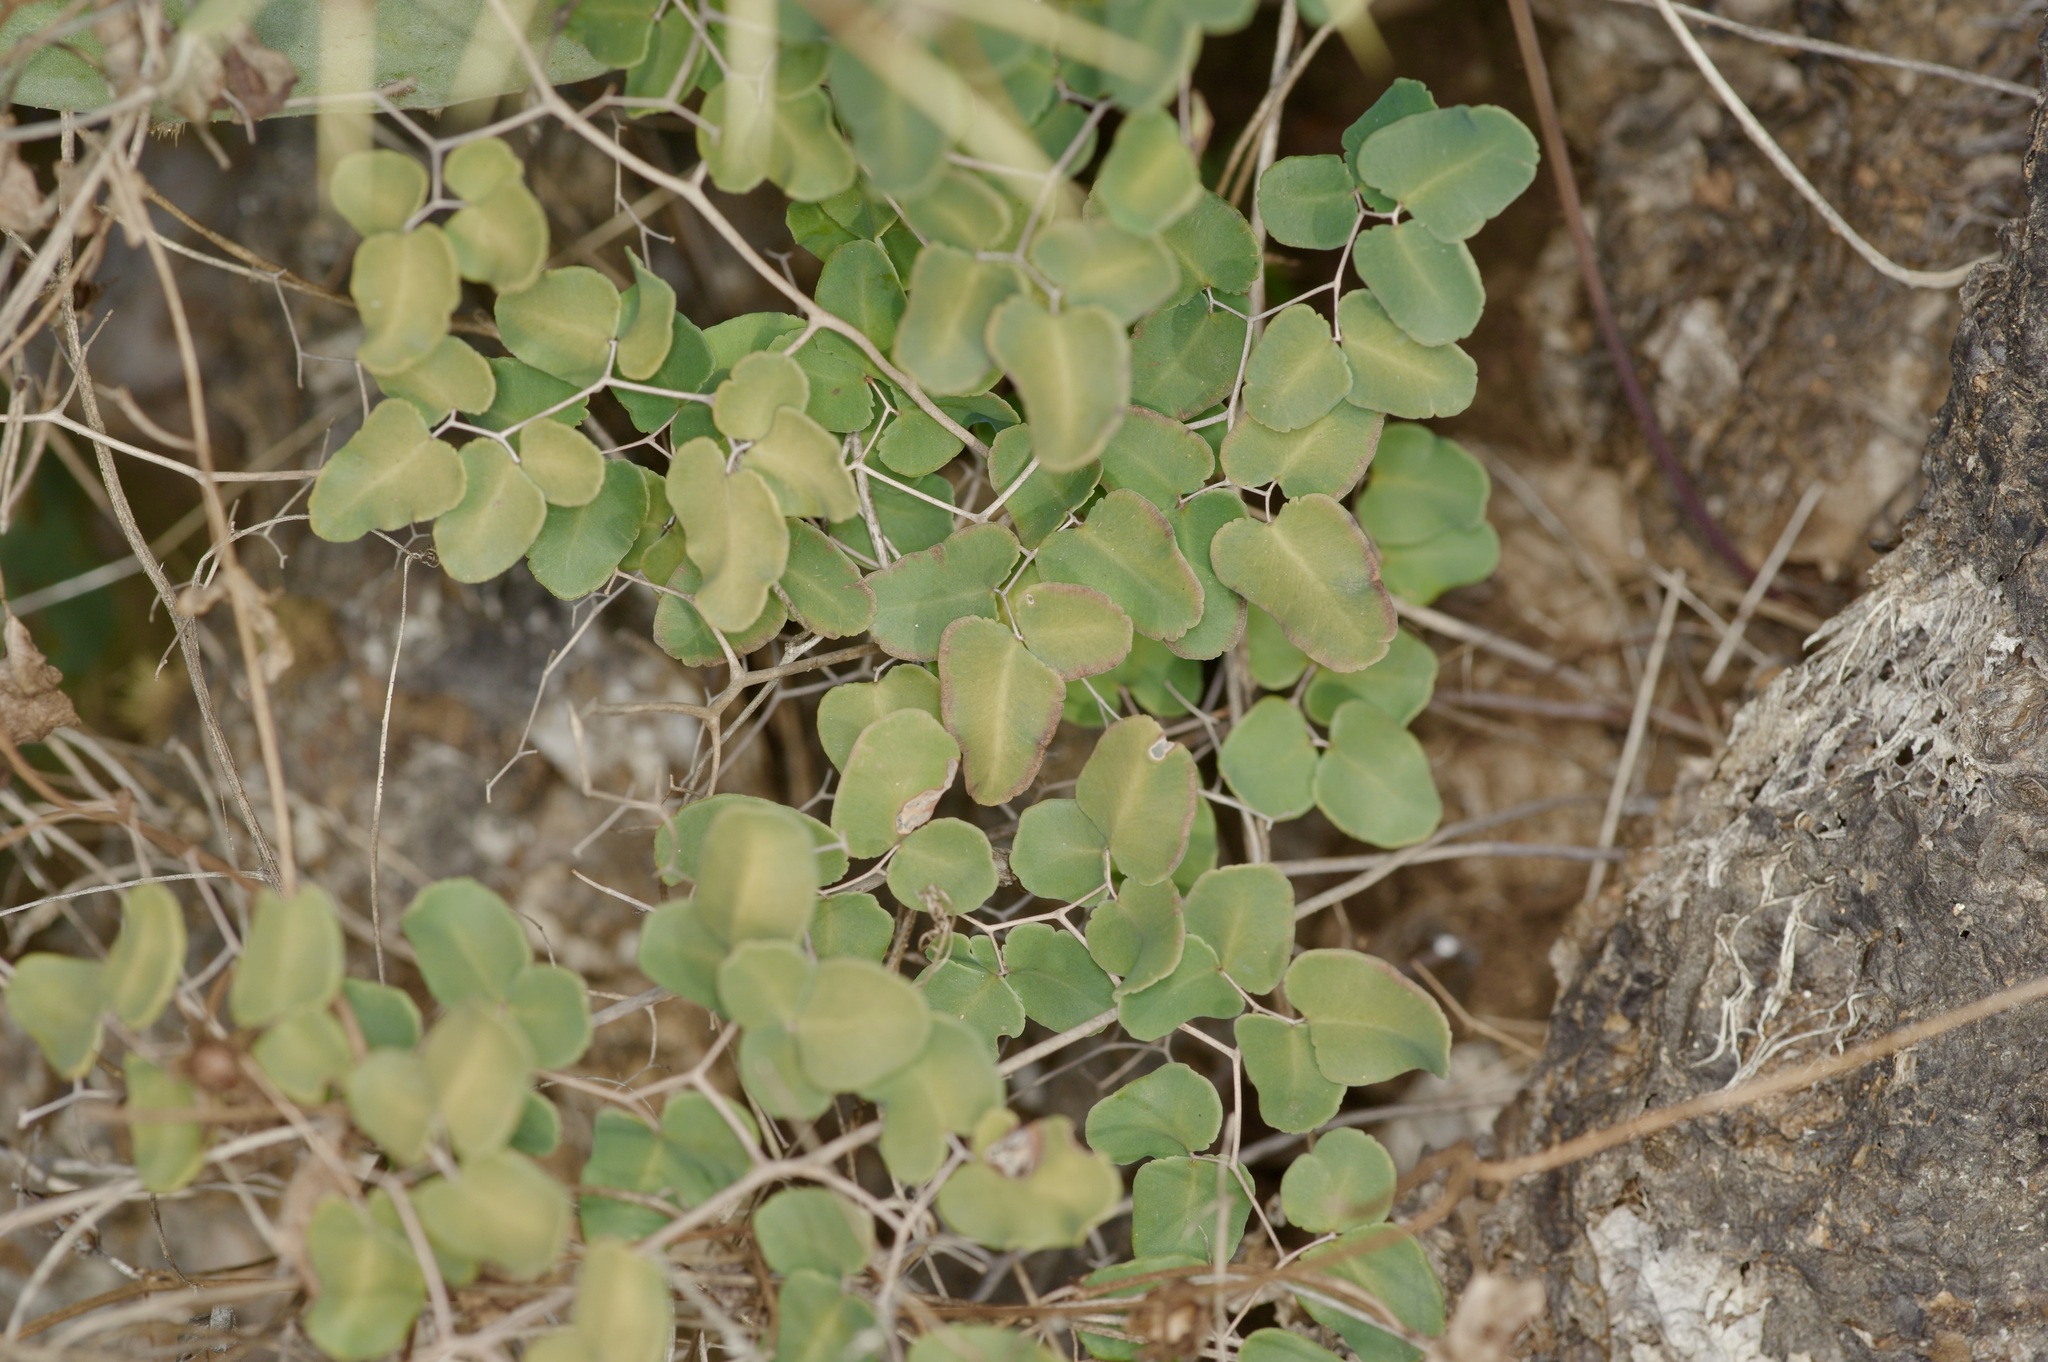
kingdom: Plantae
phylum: Tracheophyta
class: Polypodiopsida
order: Polypodiales
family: Pteridaceae
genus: Pellaea
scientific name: Pellaea ovata
